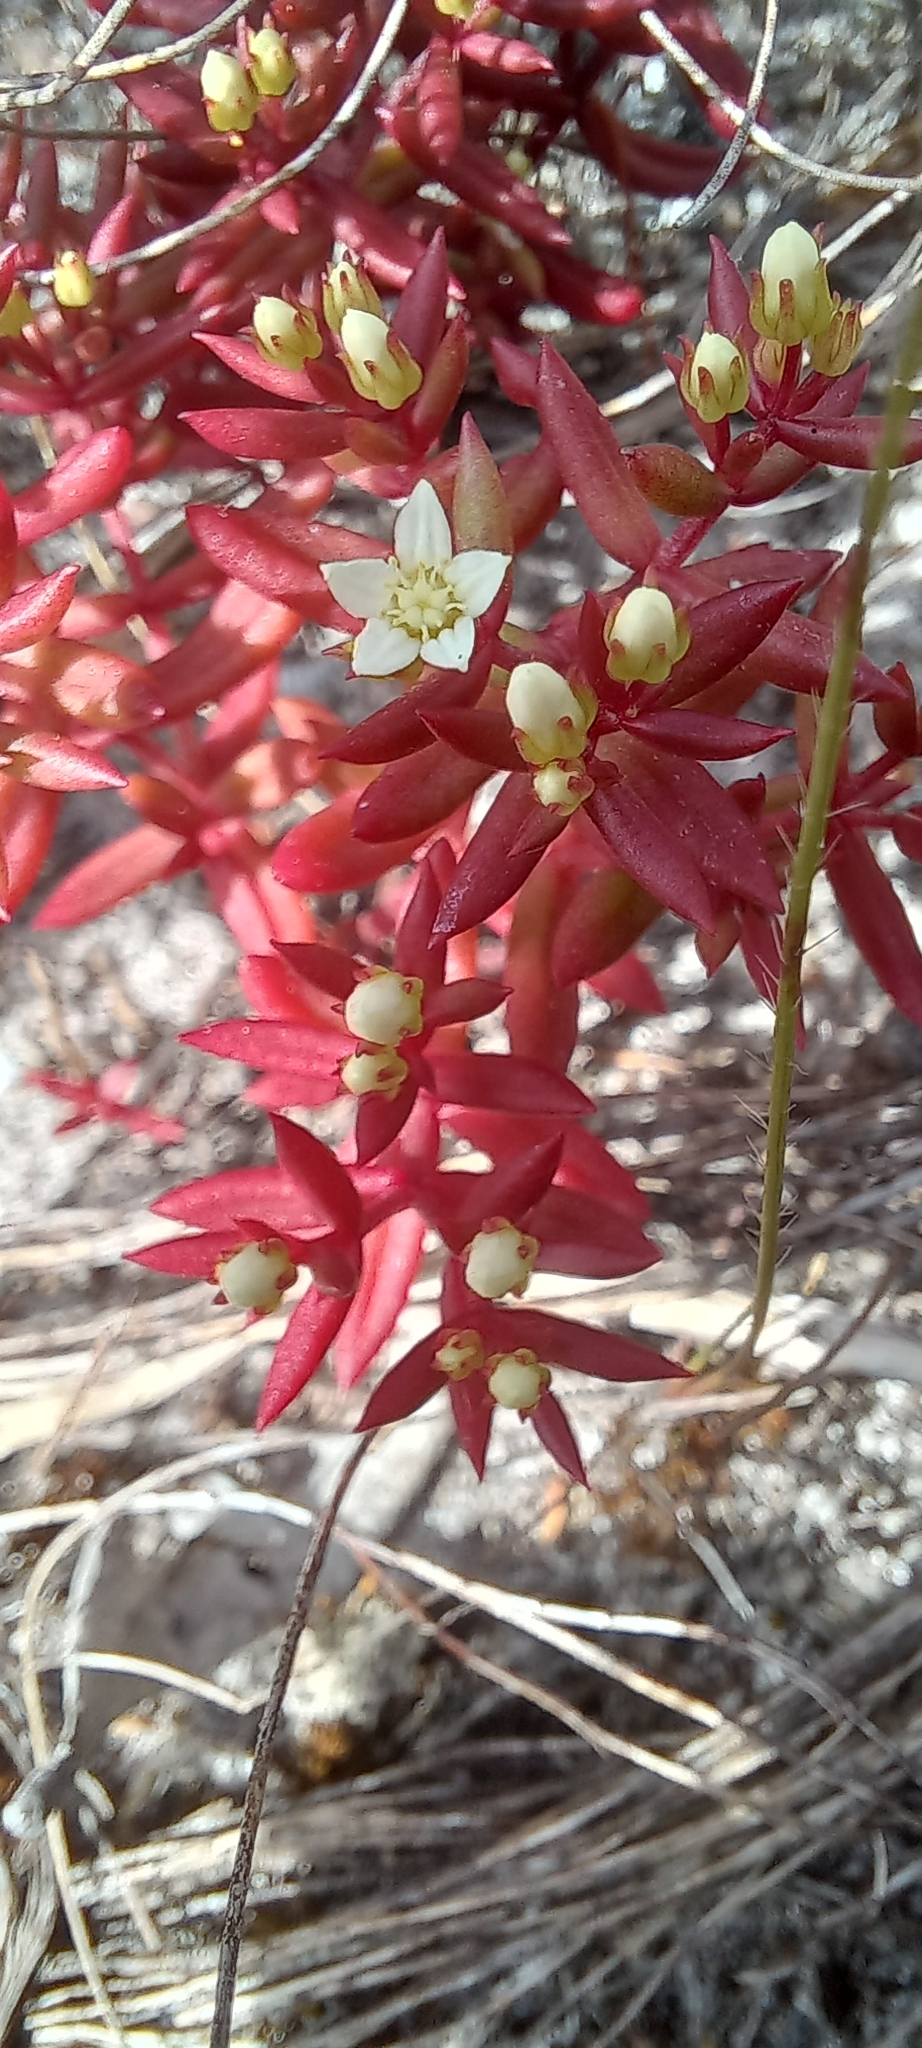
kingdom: Plantae
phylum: Tracheophyta
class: Magnoliopsida
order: Saxifragales
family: Crassulaceae
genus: Crassula
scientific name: Crassula expansa
